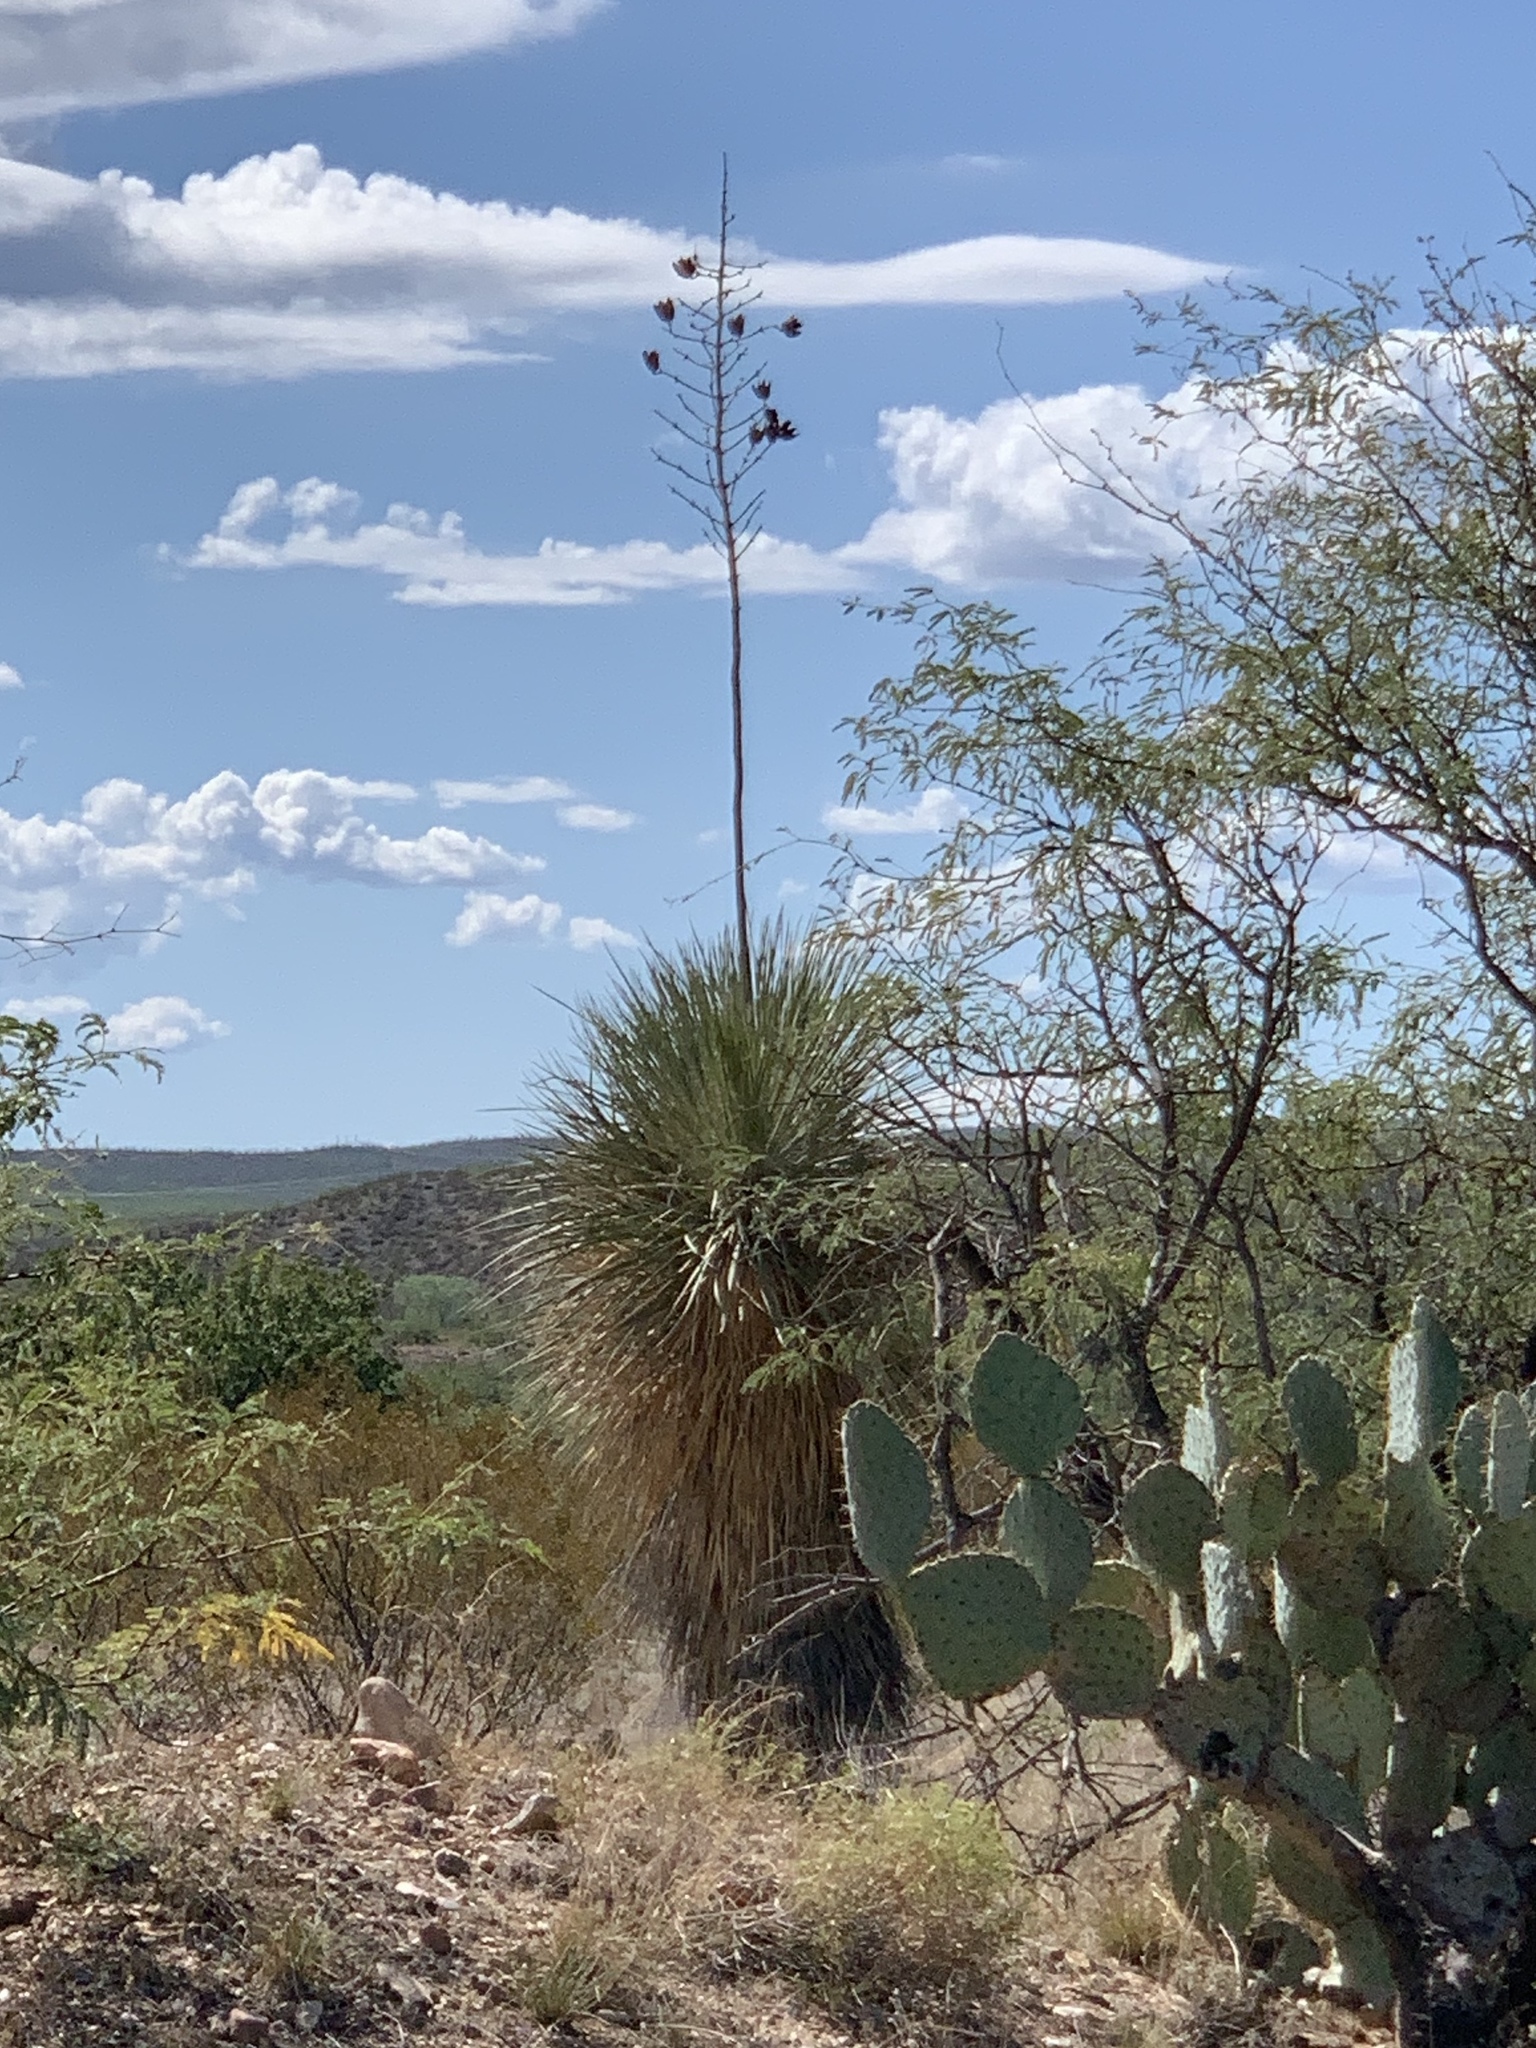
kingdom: Plantae
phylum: Tracheophyta
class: Liliopsida
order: Asparagales
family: Asparagaceae
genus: Yucca
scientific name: Yucca elata
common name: Palmella
